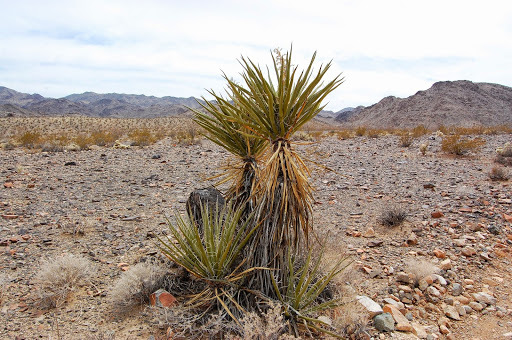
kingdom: Plantae
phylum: Tracheophyta
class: Liliopsida
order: Asparagales
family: Asparagaceae
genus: Yucca
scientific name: Yucca schidigera
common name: Mojave yucca
